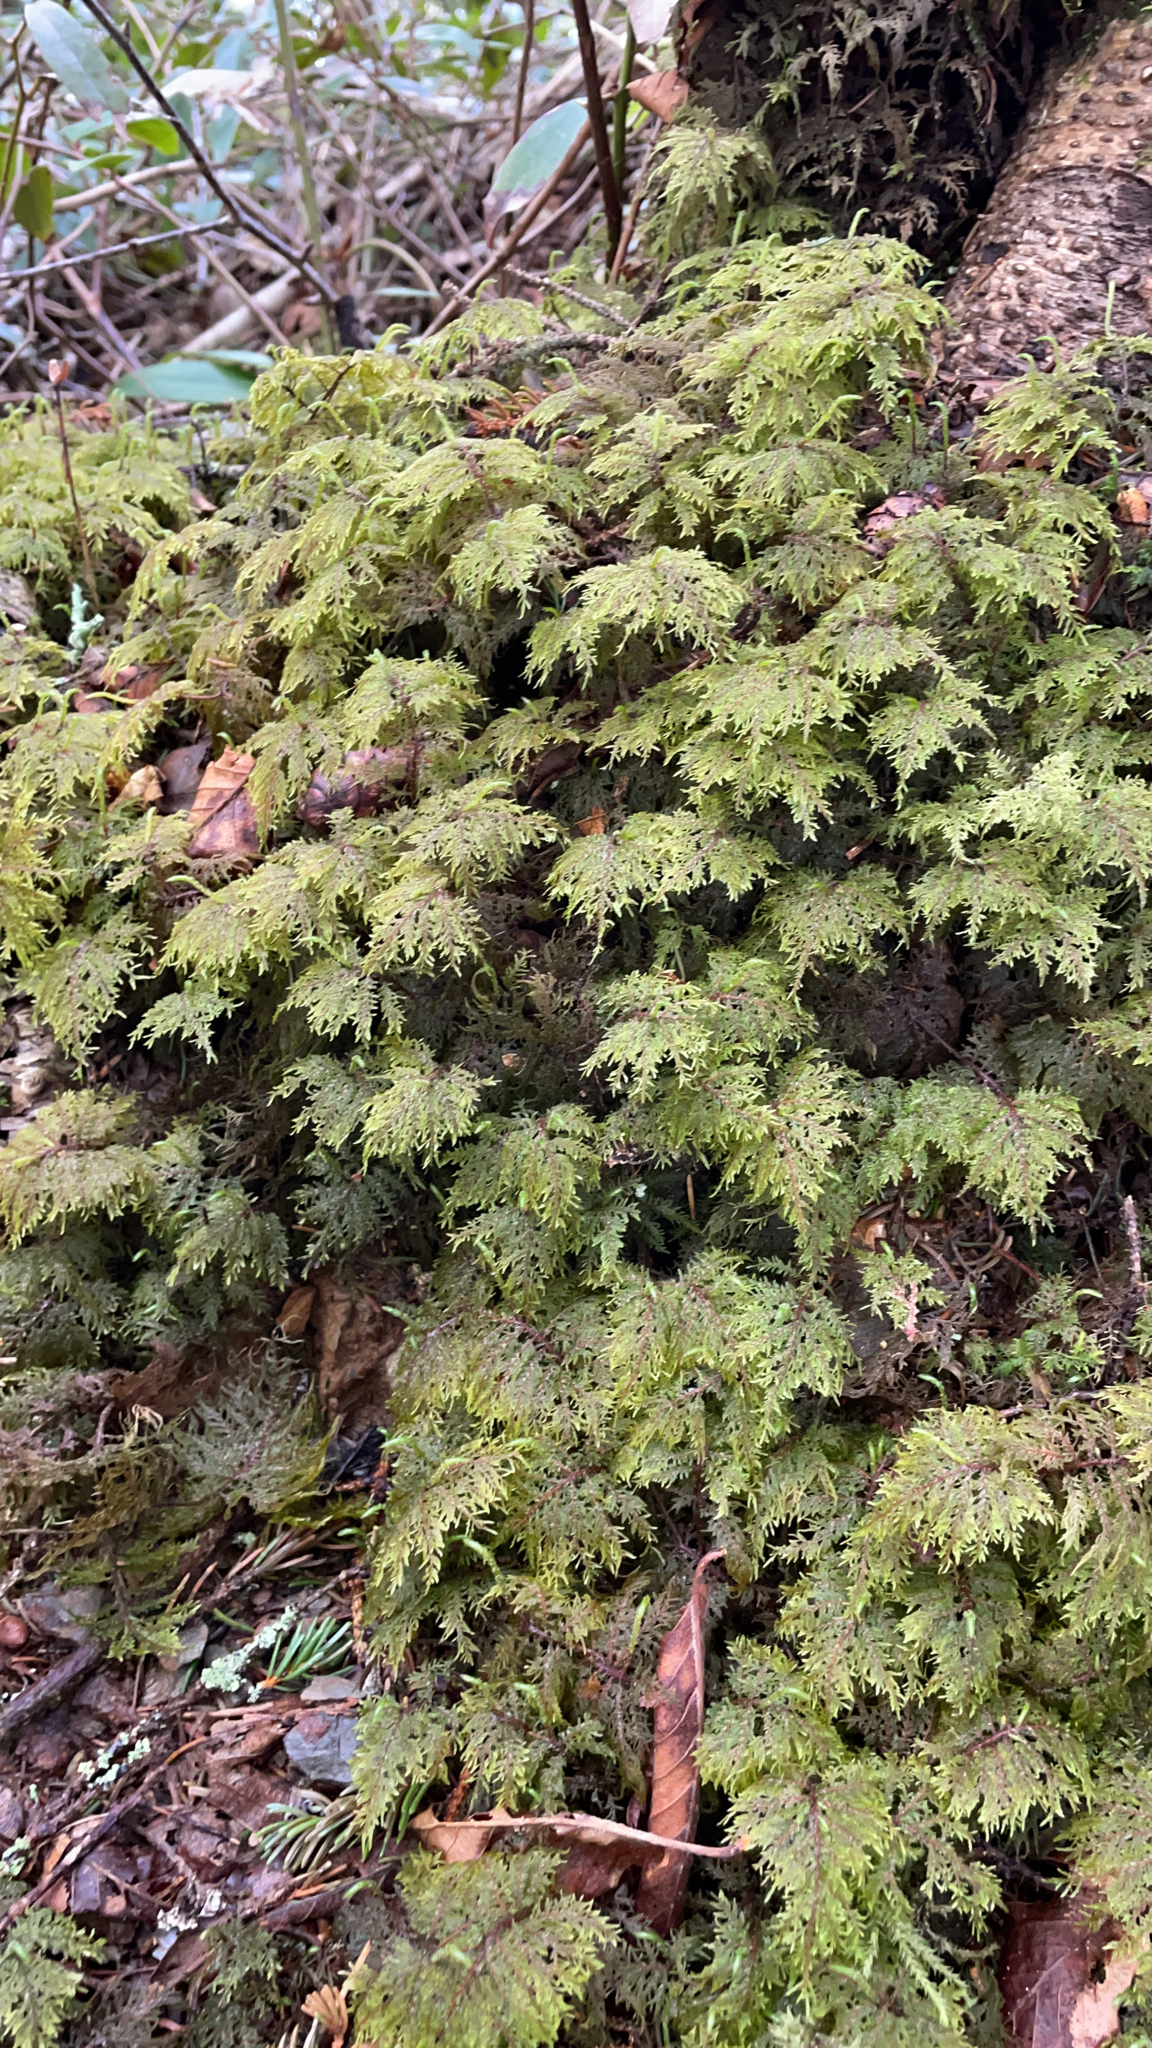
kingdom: Plantae
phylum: Bryophyta
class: Bryopsida
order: Hypnales
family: Hylocomiaceae
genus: Hylocomium
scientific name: Hylocomium splendens
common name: Stairstep moss
